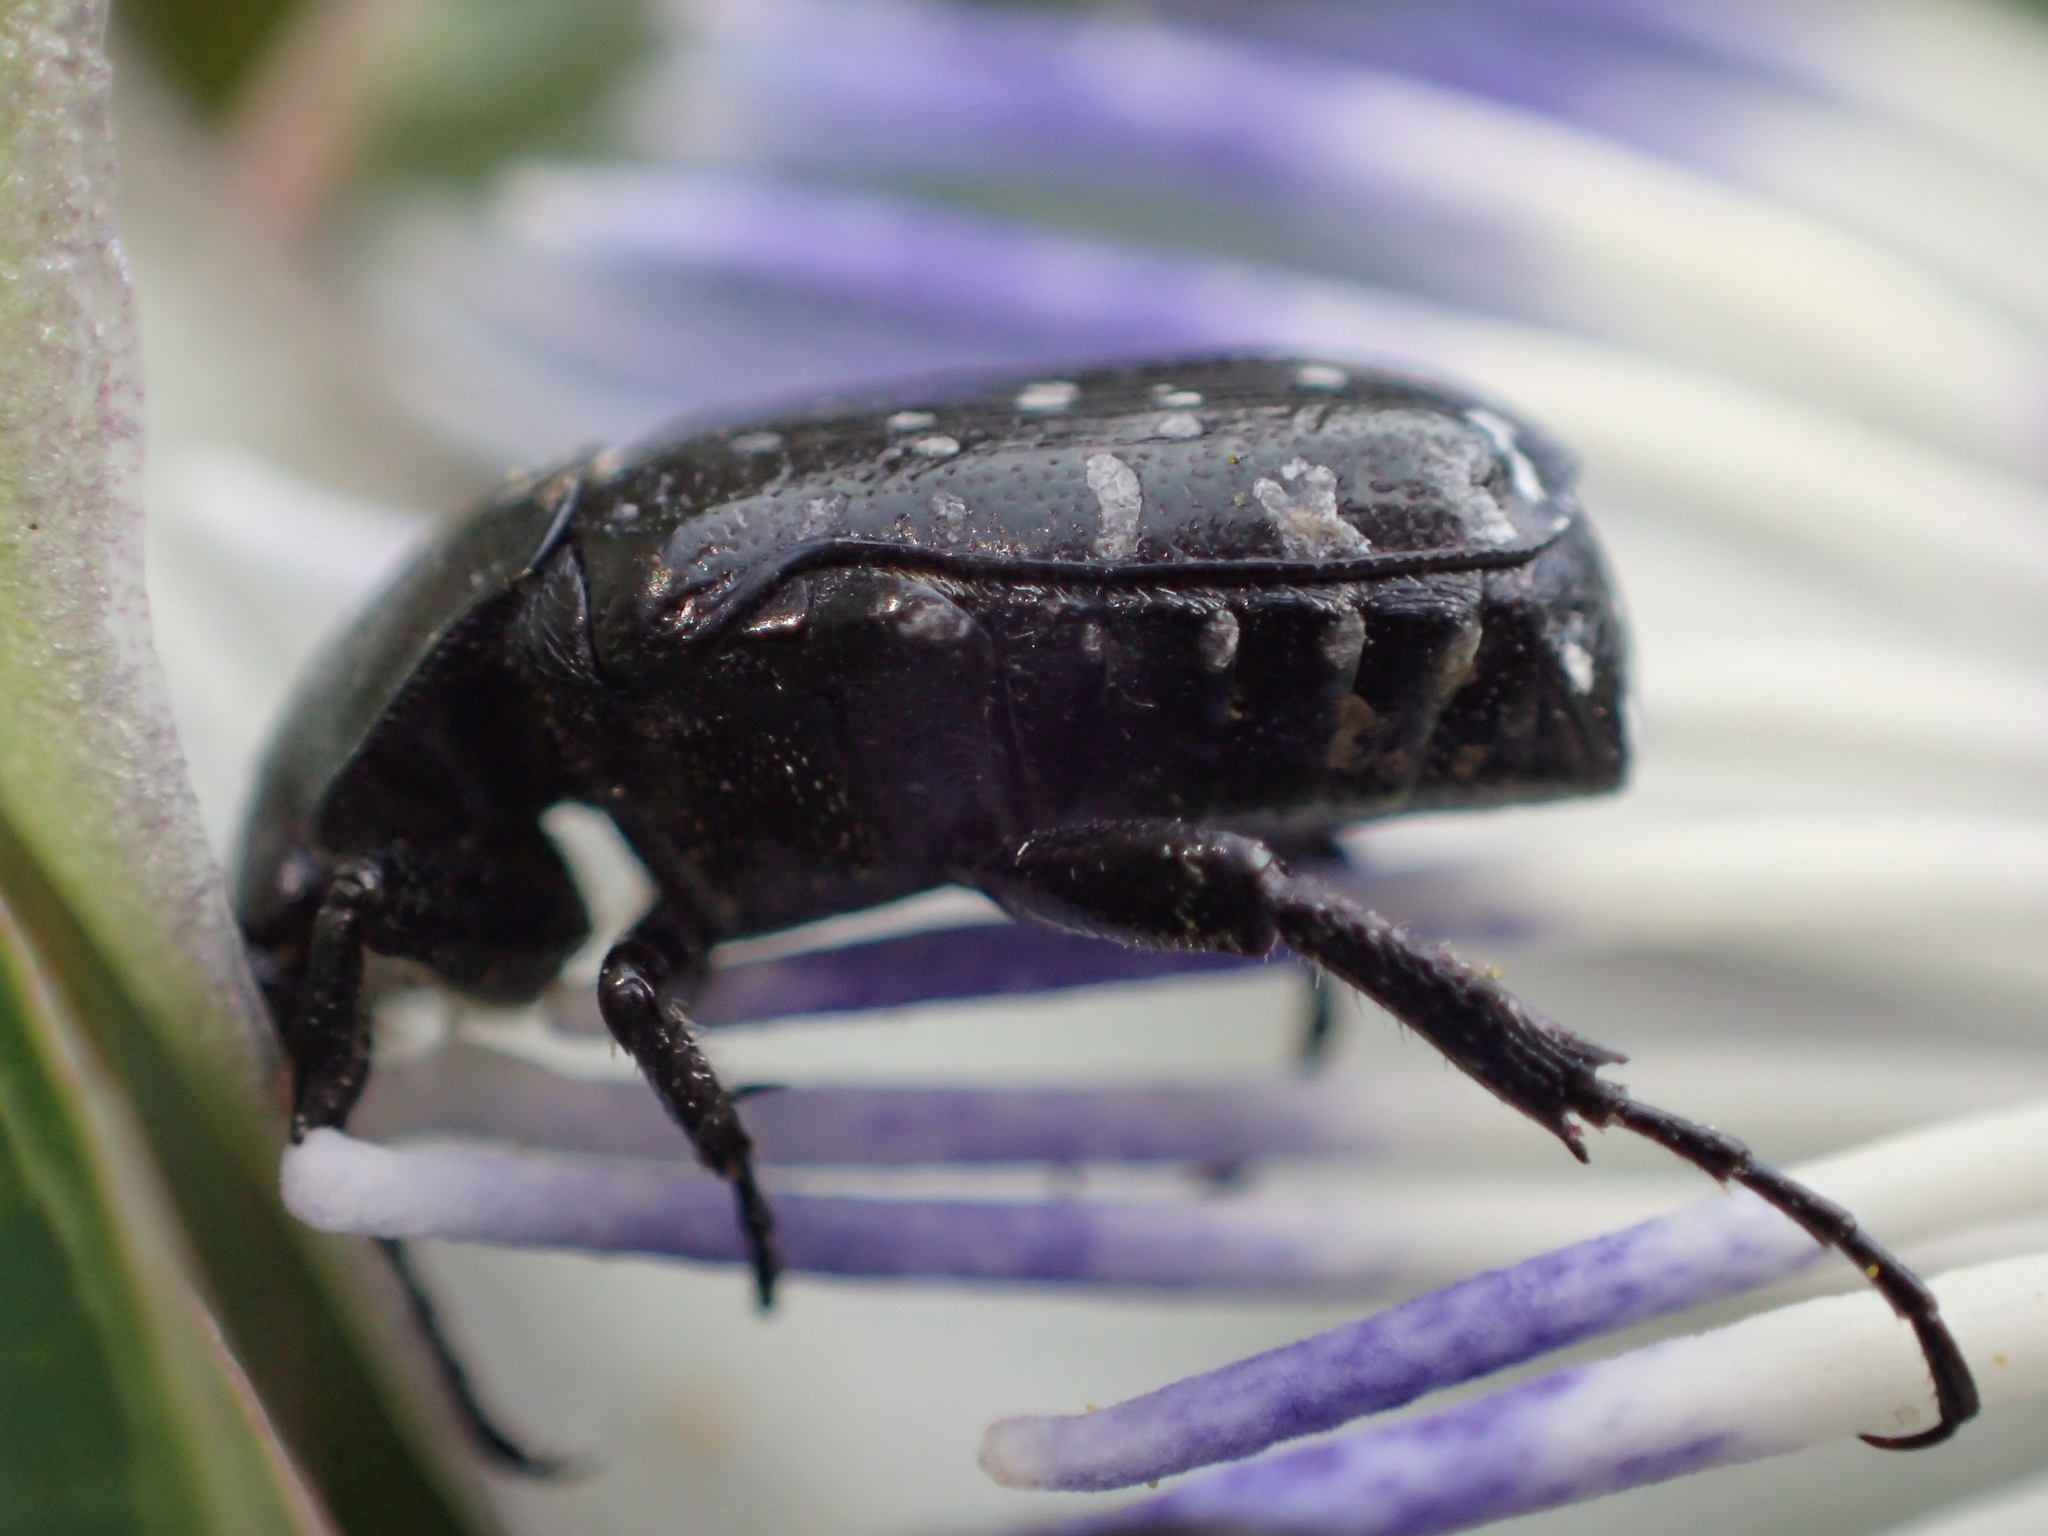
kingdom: Animalia
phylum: Arthropoda
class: Insecta
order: Coleoptera
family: Scarabaeidae
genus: Oxythyrea
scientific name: Oxythyrea funesta
